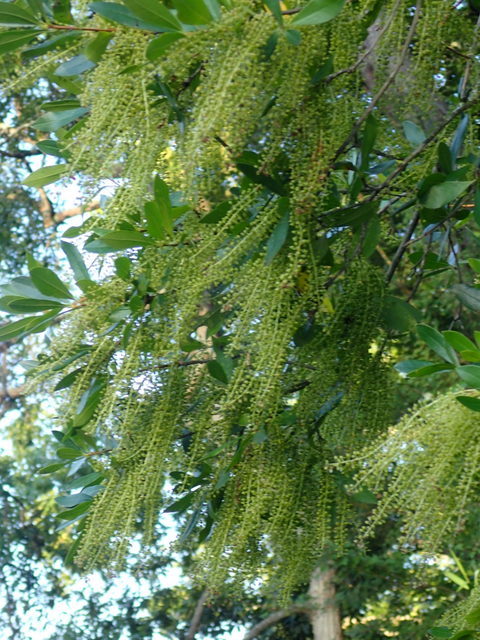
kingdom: Plantae
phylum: Tracheophyta
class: Magnoliopsida
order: Ericales
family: Cyrillaceae
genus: Cyrilla
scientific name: Cyrilla racemiflora
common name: Black titi
